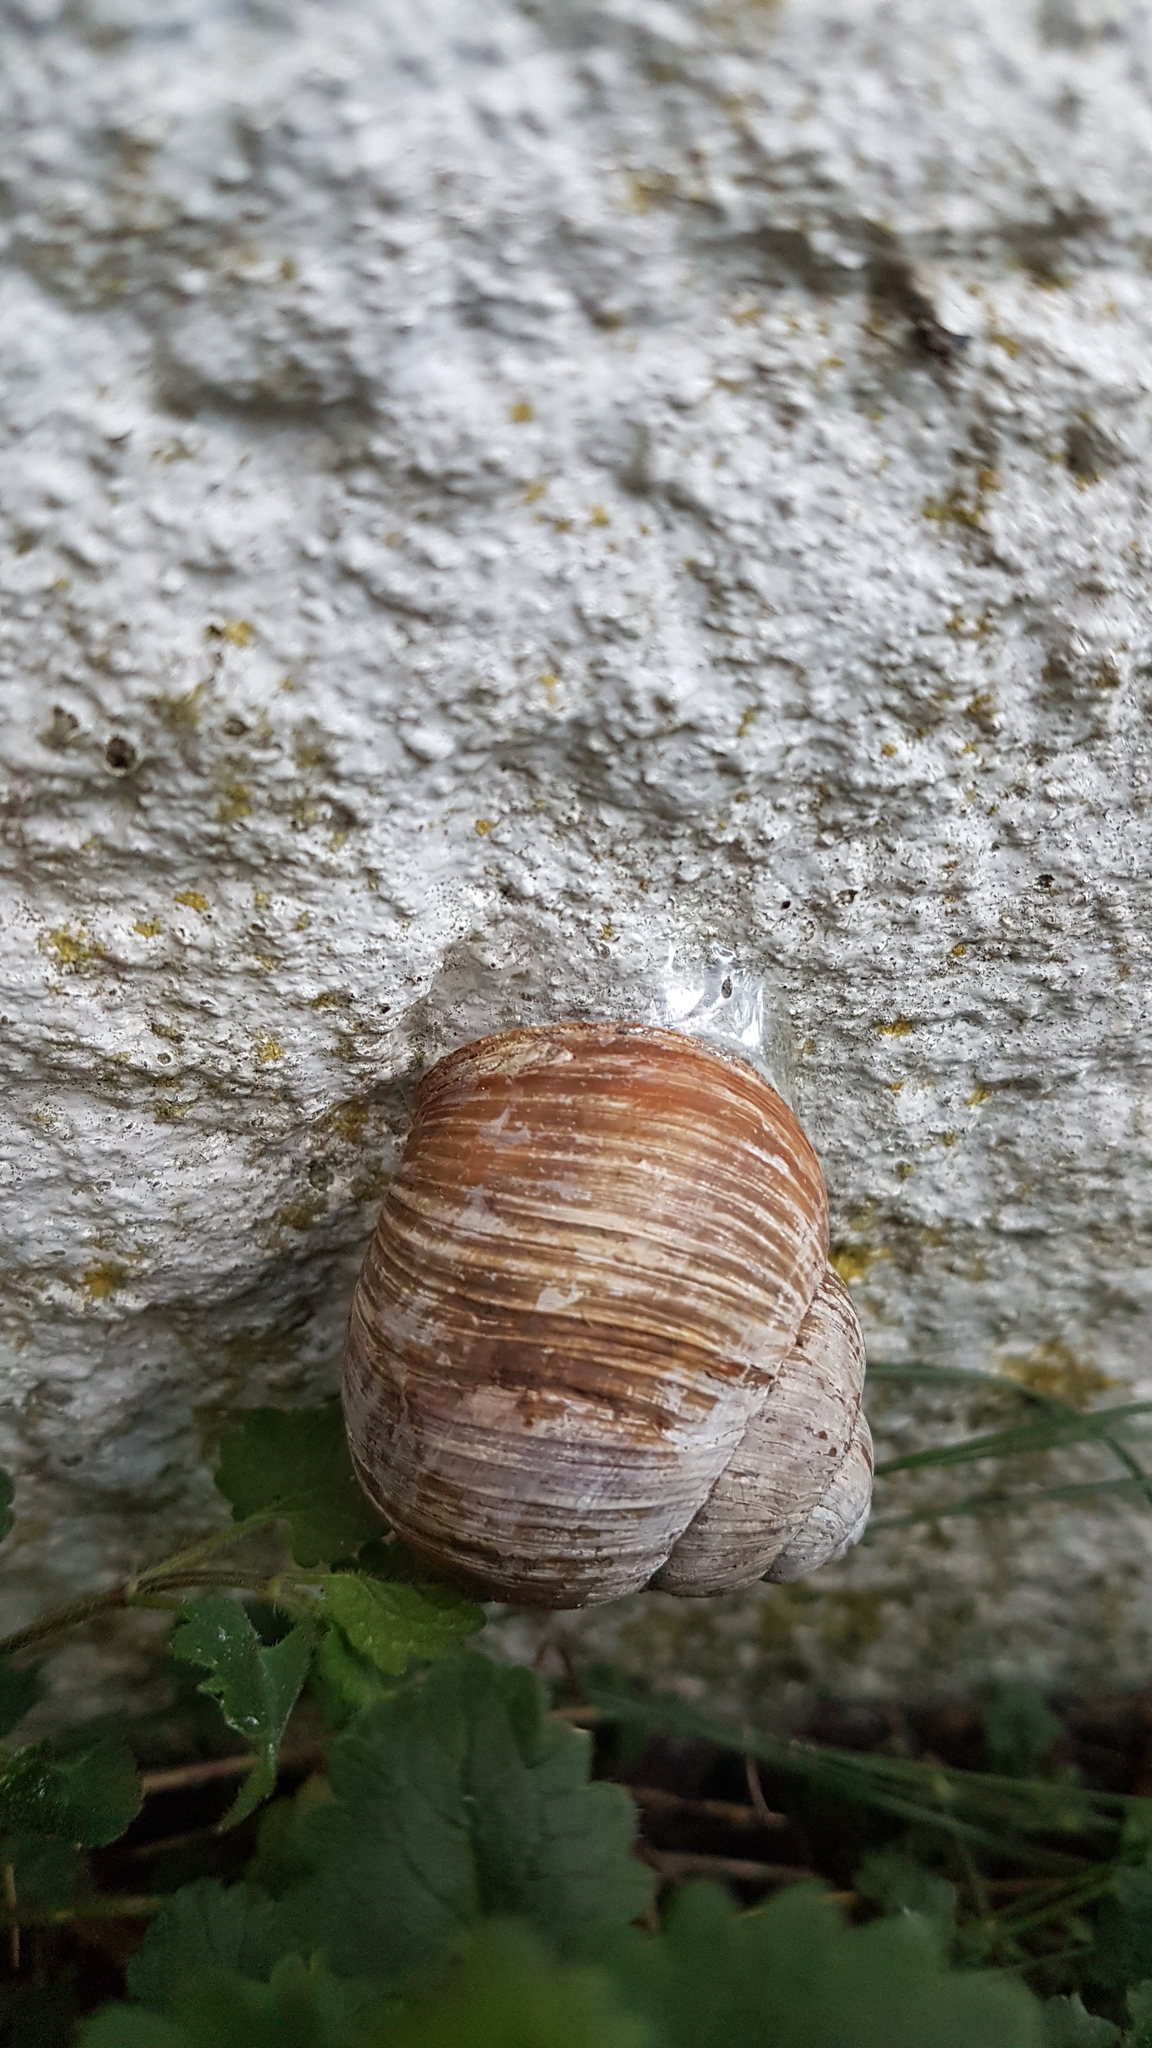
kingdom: Animalia
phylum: Mollusca
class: Gastropoda
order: Stylommatophora
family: Helicidae
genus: Helix
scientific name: Helix pomatia
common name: Roman snail
